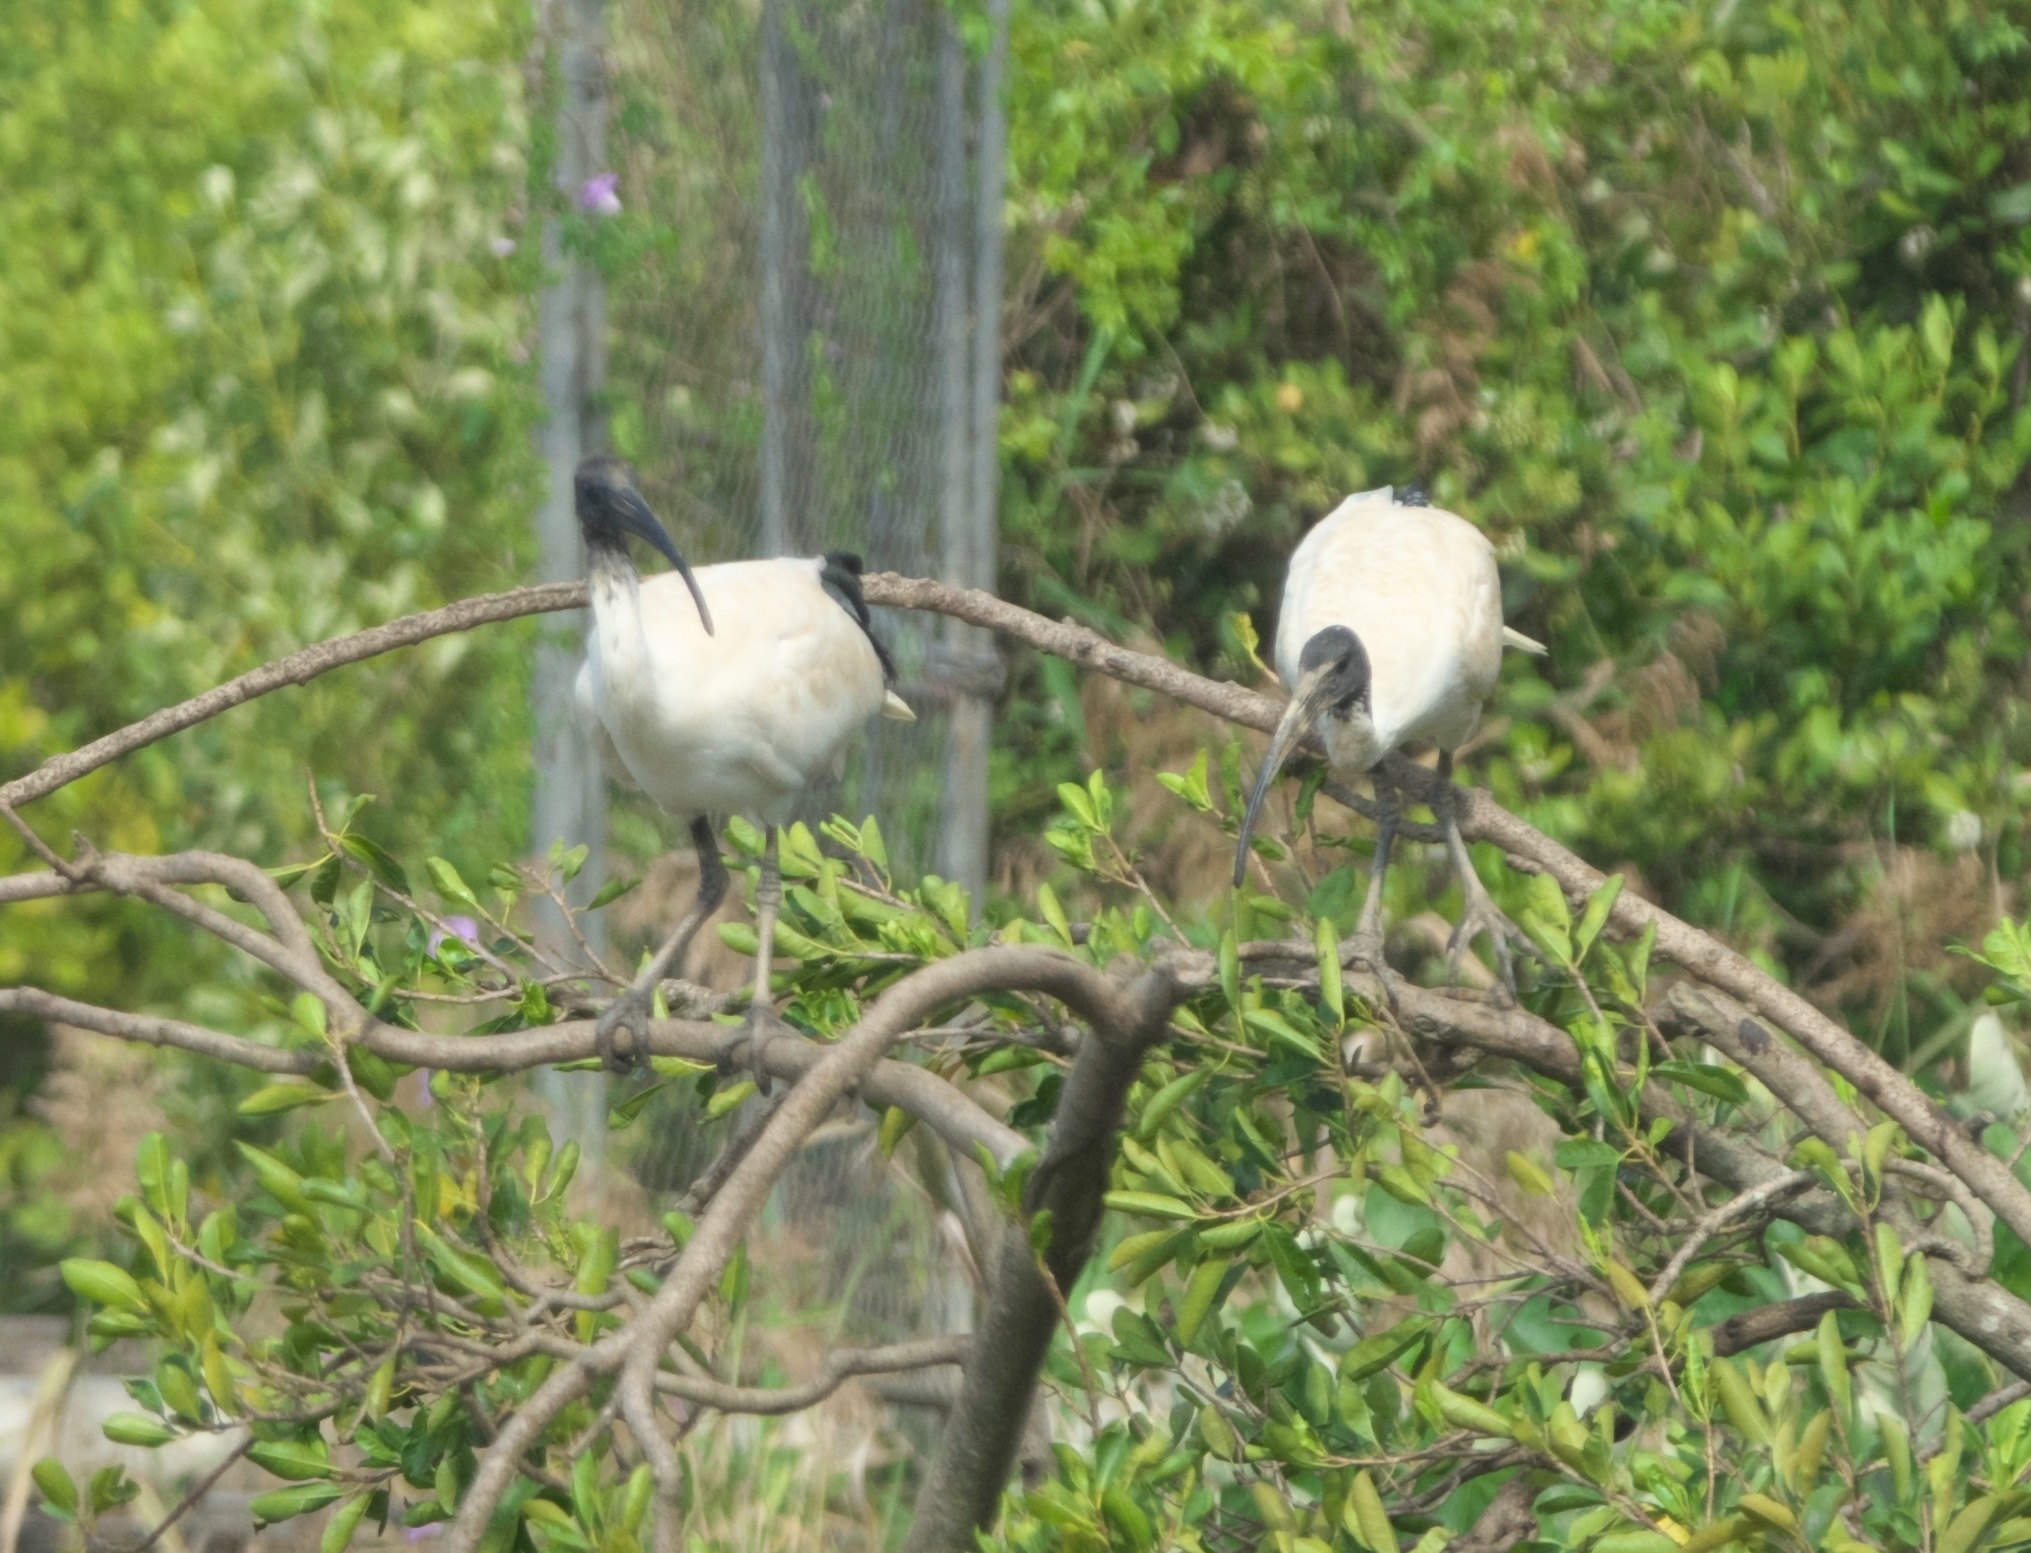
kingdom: Animalia
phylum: Chordata
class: Aves
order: Pelecaniformes
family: Threskiornithidae
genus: Threskiornis
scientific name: Threskiornis molucca
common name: Australian white ibis
